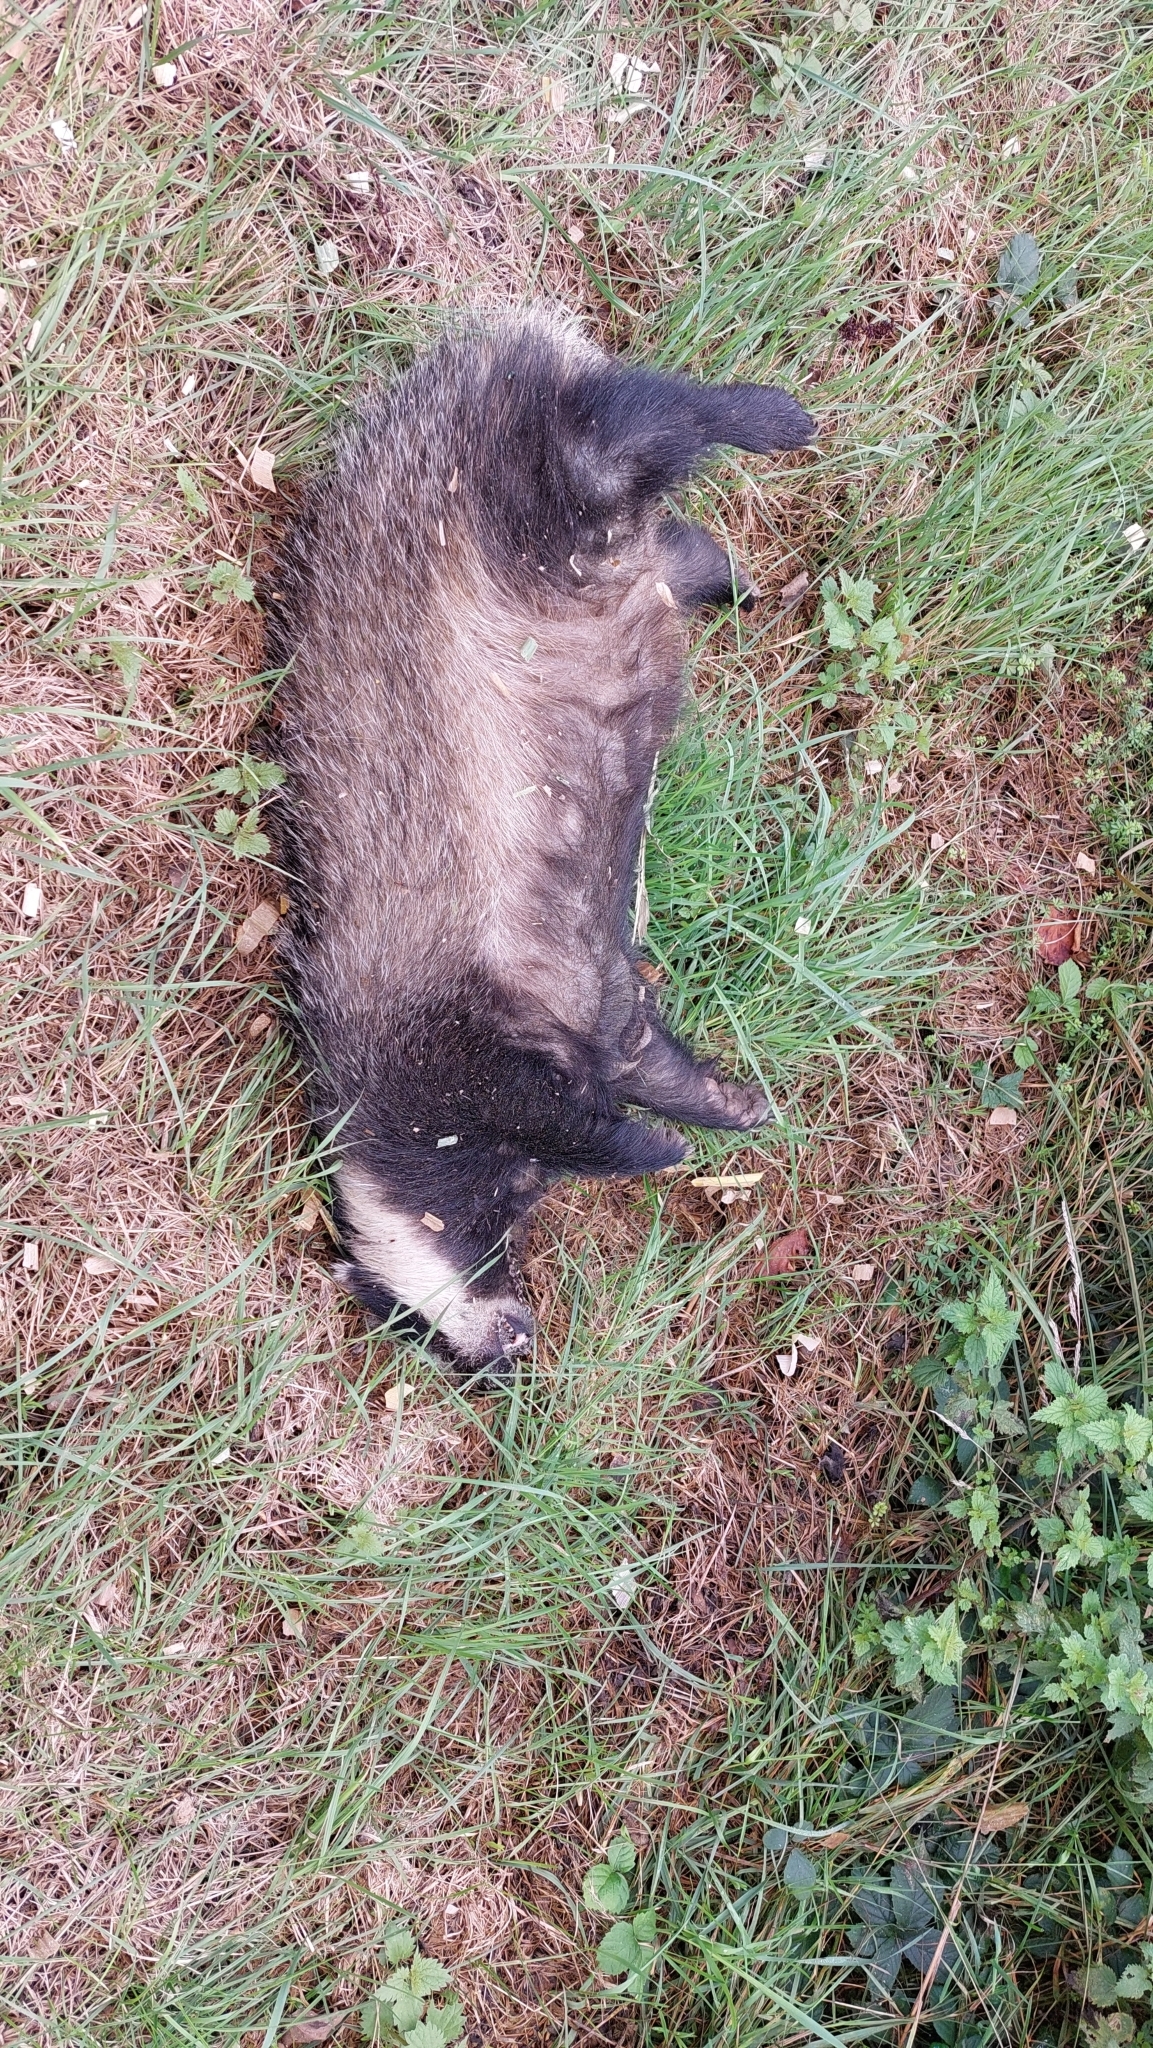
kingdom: Animalia
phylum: Chordata
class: Mammalia
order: Carnivora
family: Mustelidae
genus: Meles
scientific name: Meles meles
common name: Eurasian badger
